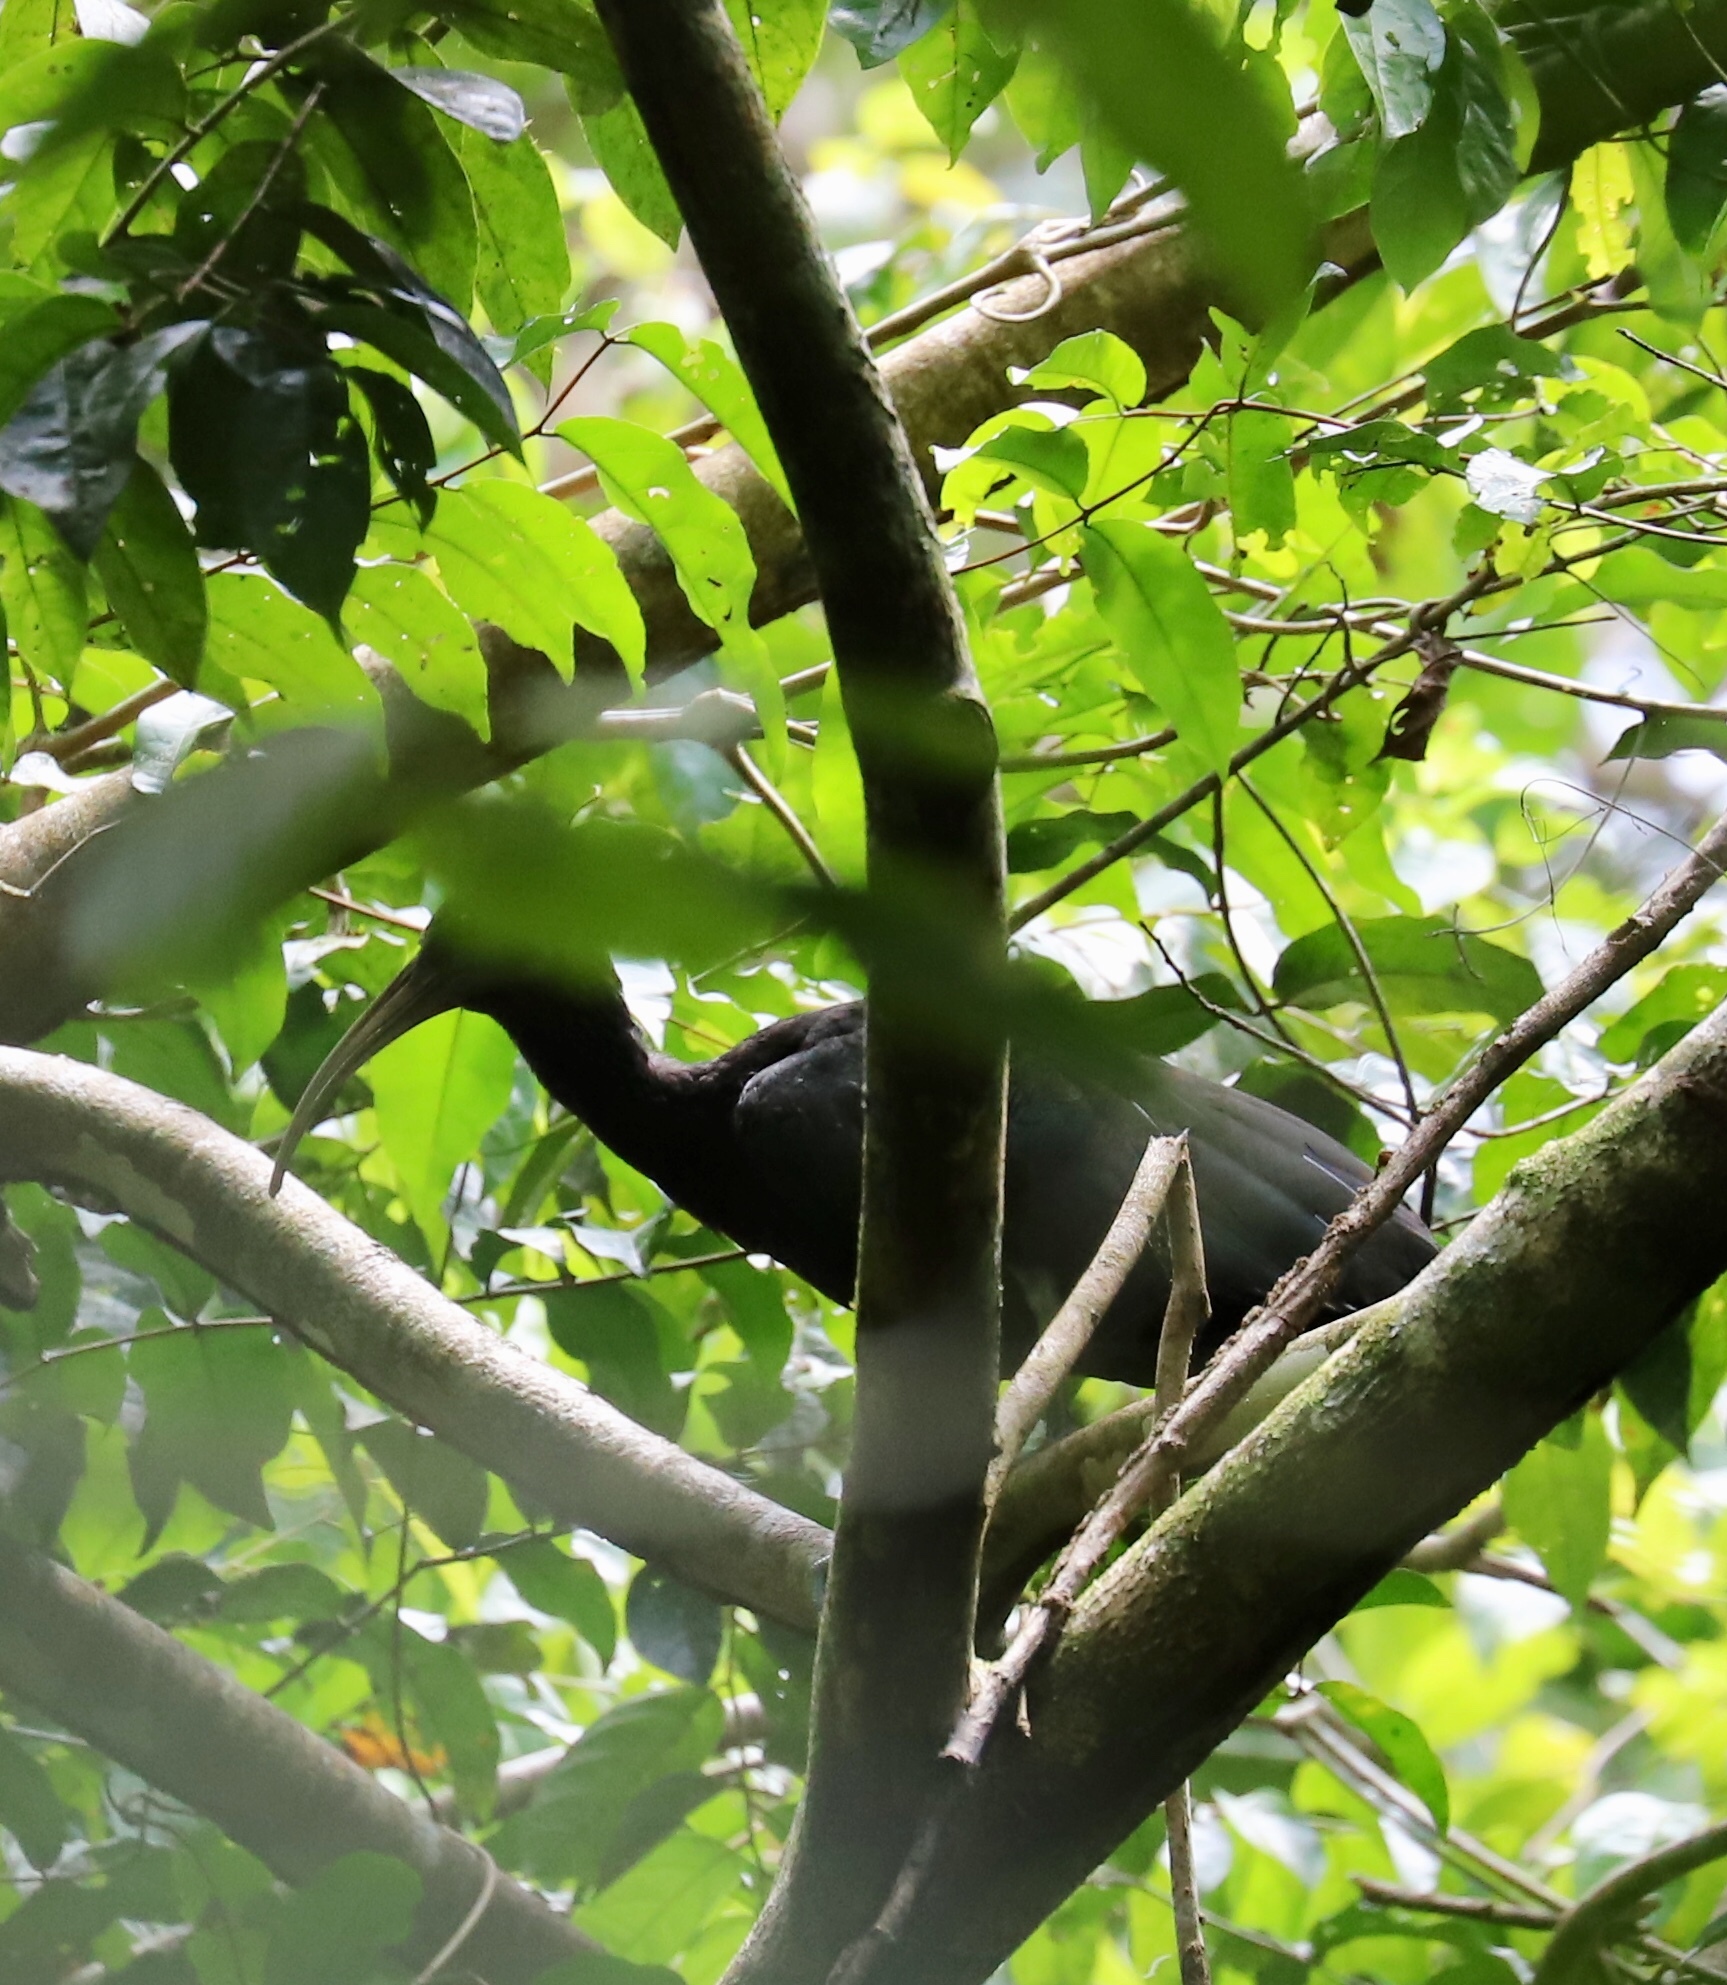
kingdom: Animalia
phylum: Chordata
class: Aves
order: Pelecaniformes
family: Threskiornithidae
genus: Mesembrinibis
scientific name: Mesembrinibis cayennensis
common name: Green ibis
